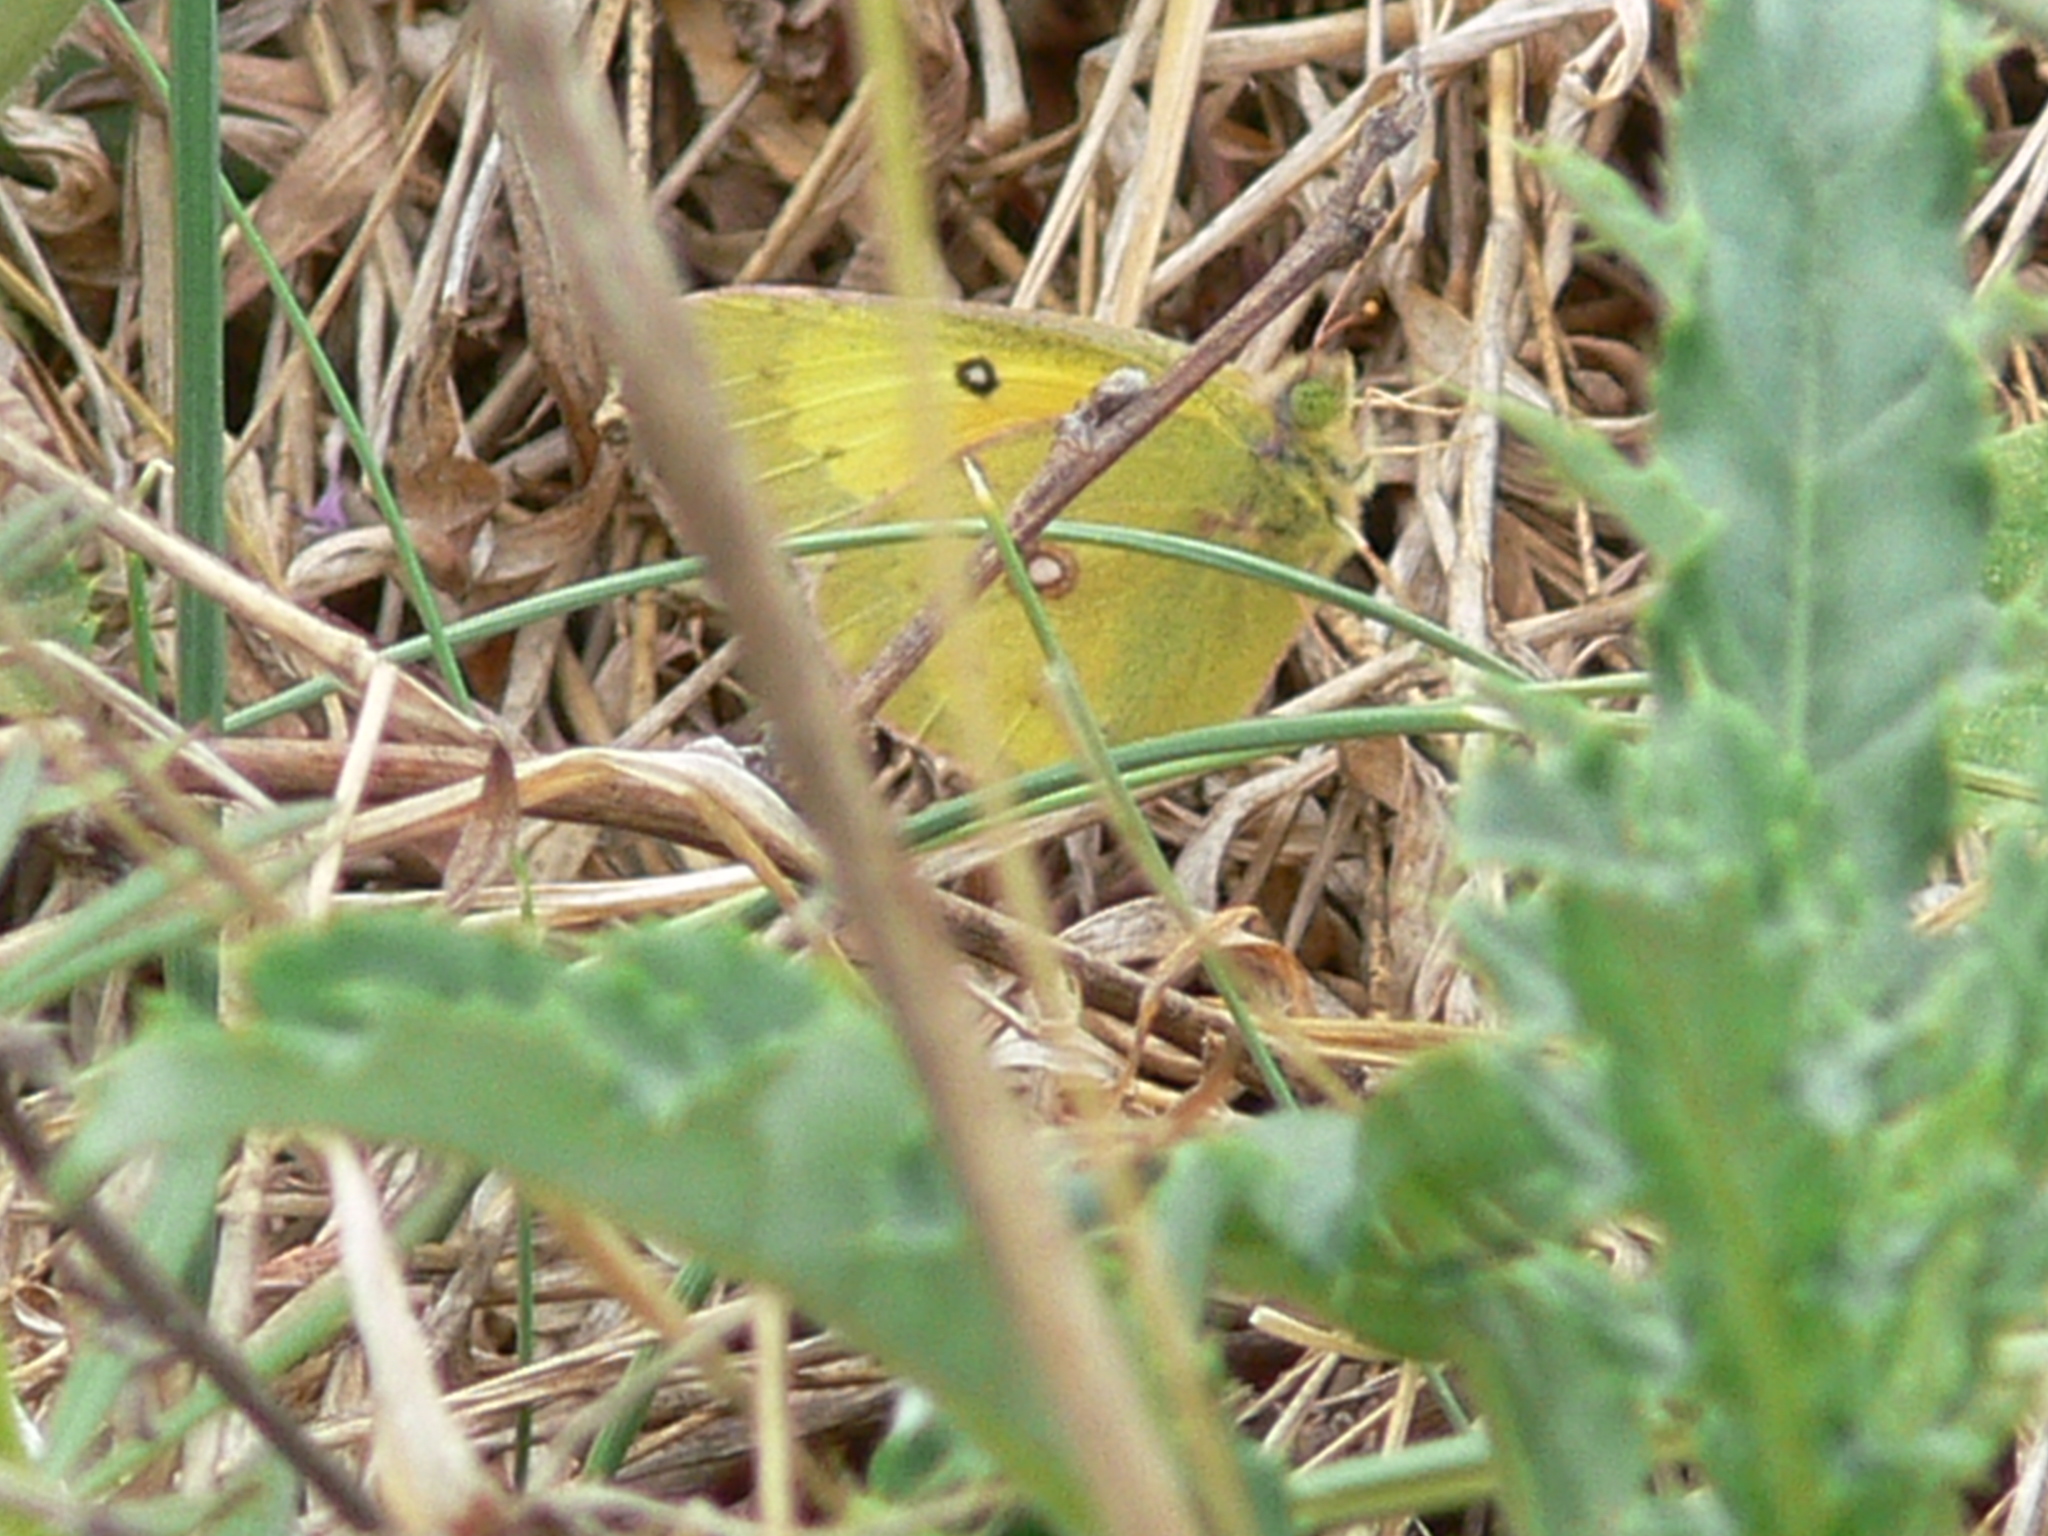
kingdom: Animalia
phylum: Arthropoda
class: Insecta
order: Lepidoptera
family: Pieridae
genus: Colias
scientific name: Colias eurytheme
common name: Alfalfa butterfly
